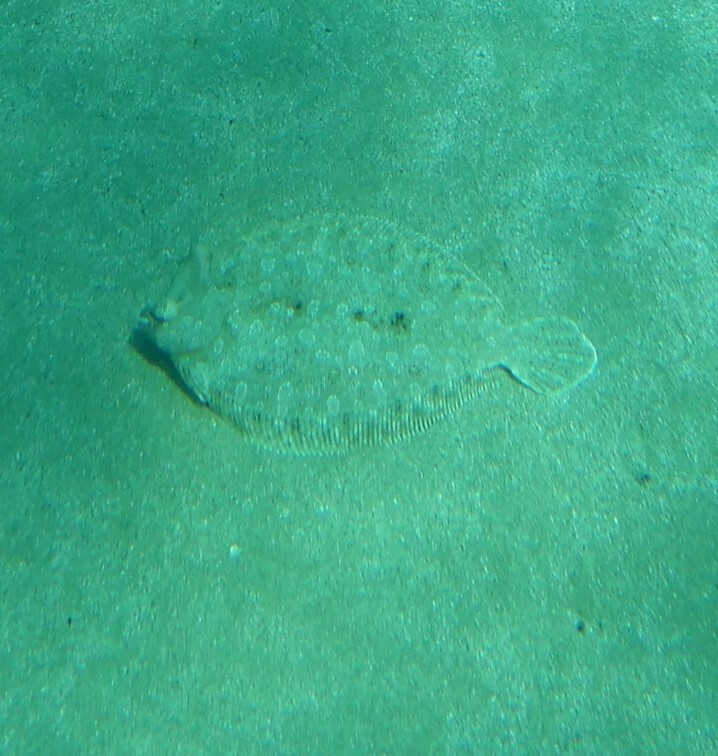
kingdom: Animalia
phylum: Chordata
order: Pleuronectiformes
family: Bothidae
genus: Bothus
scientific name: Bothus podas
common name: Wide-eyed flounder
